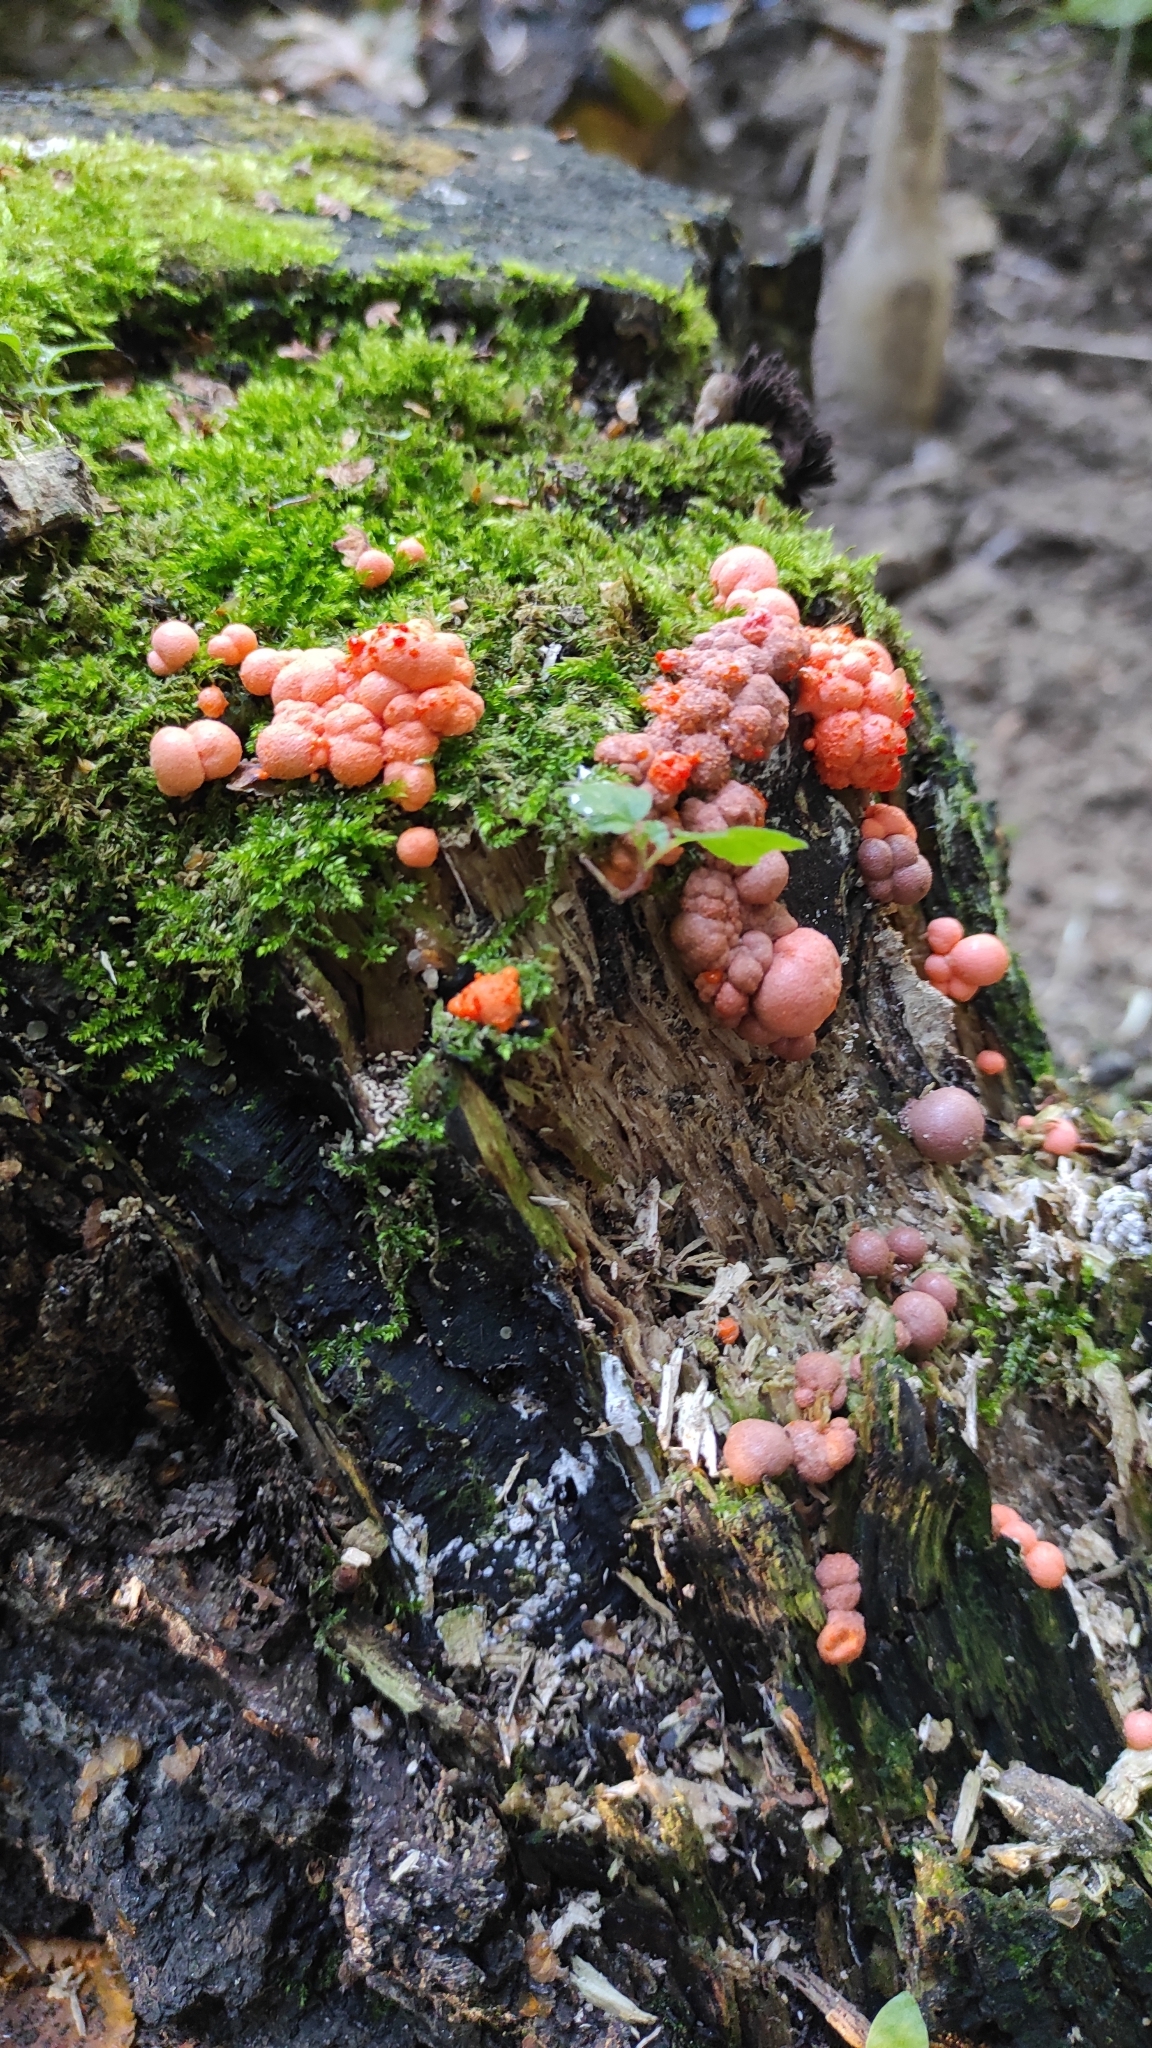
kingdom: Protozoa
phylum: Mycetozoa
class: Myxomycetes
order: Cribrariales
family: Tubiferaceae
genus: Lycogala
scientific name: Lycogala epidendrum
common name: Wolf's milk
